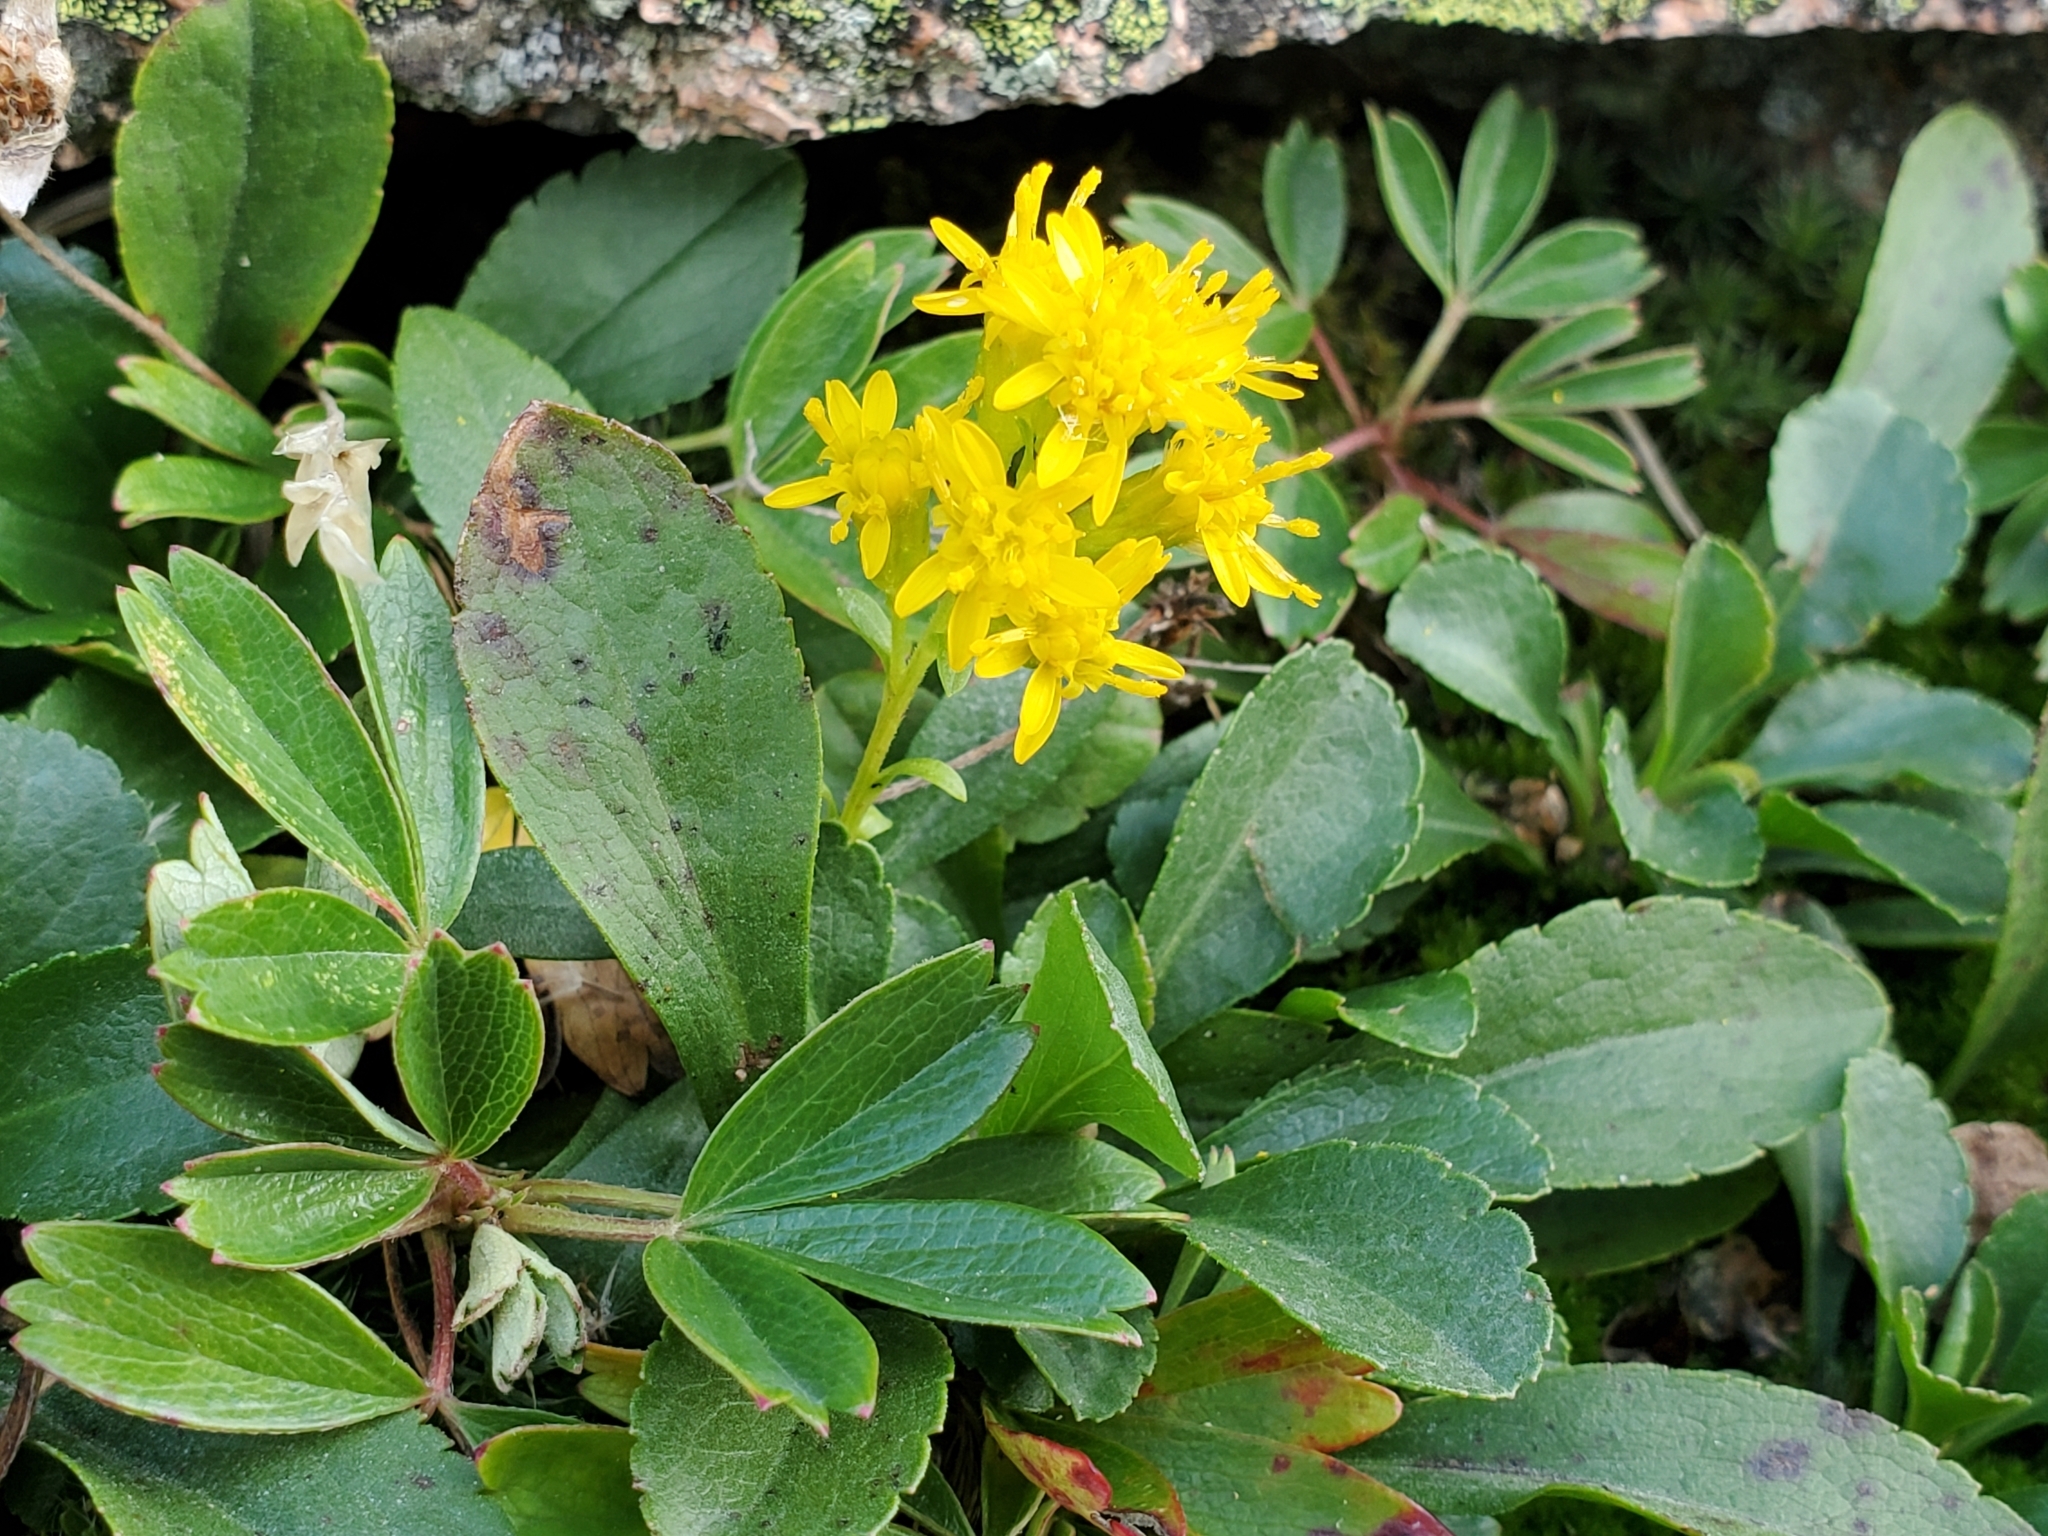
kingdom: Plantae
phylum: Tracheophyta
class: Magnoliopsida
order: Asterales
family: Asteraceae
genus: Solidago
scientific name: Solidago simplex
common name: Sticky goldenrod
